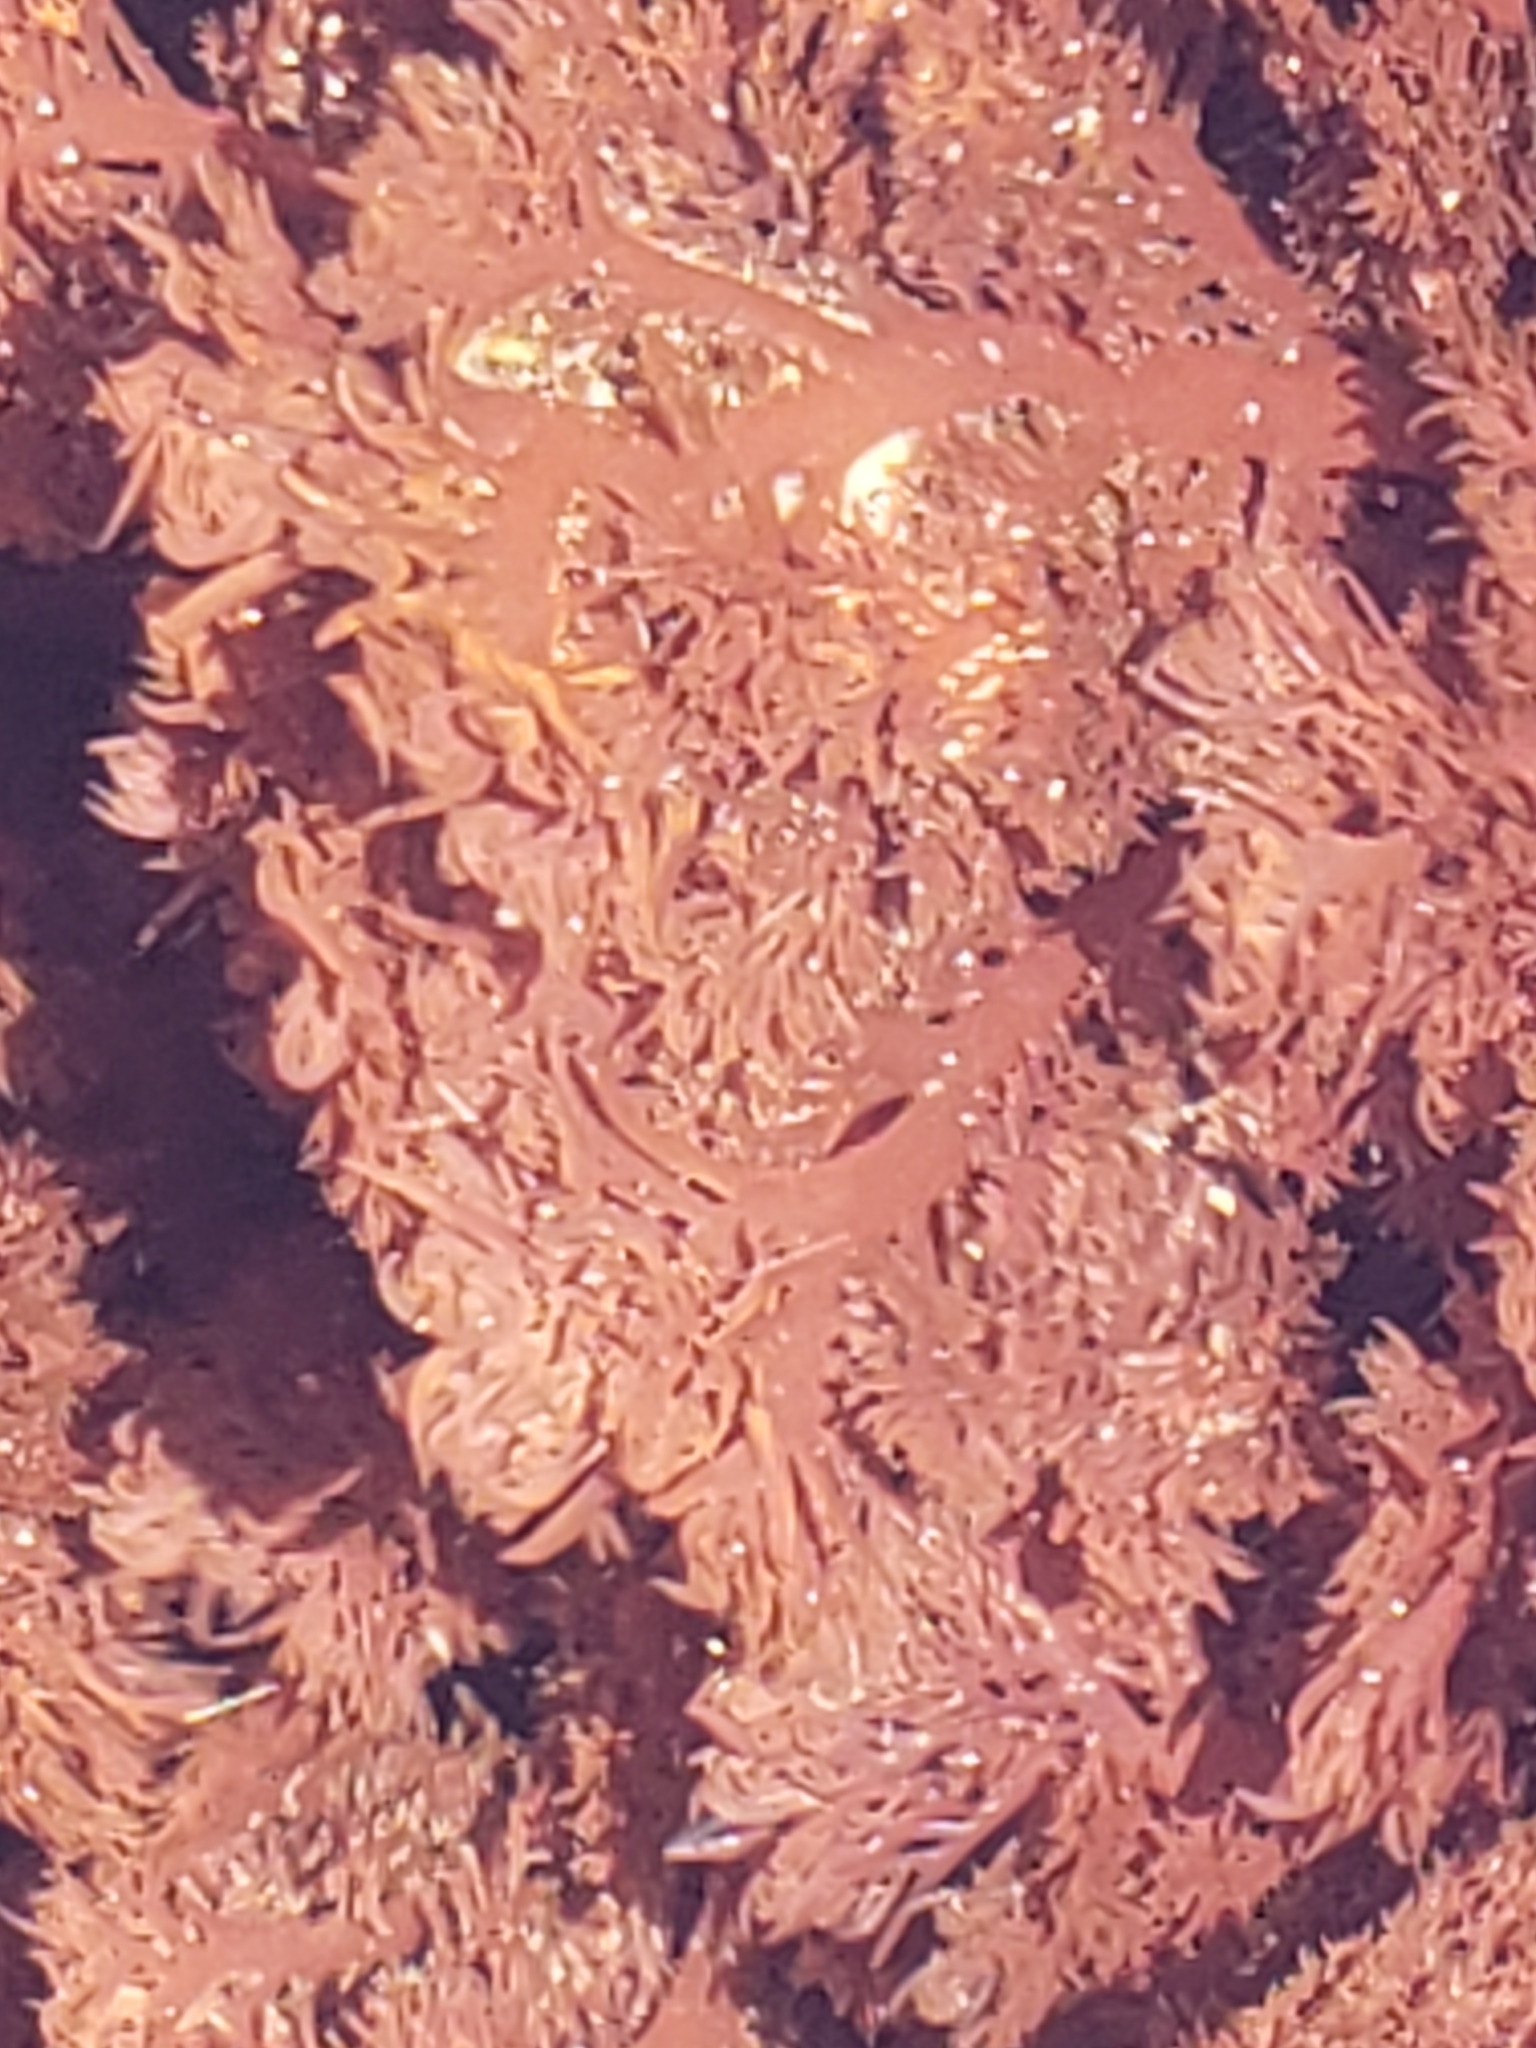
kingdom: Plantae
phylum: Rhodophyta
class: Florideophyceae
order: Plocamiales
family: Plocamiaceae
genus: Plocamium
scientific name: Plocamium cartilagineum
